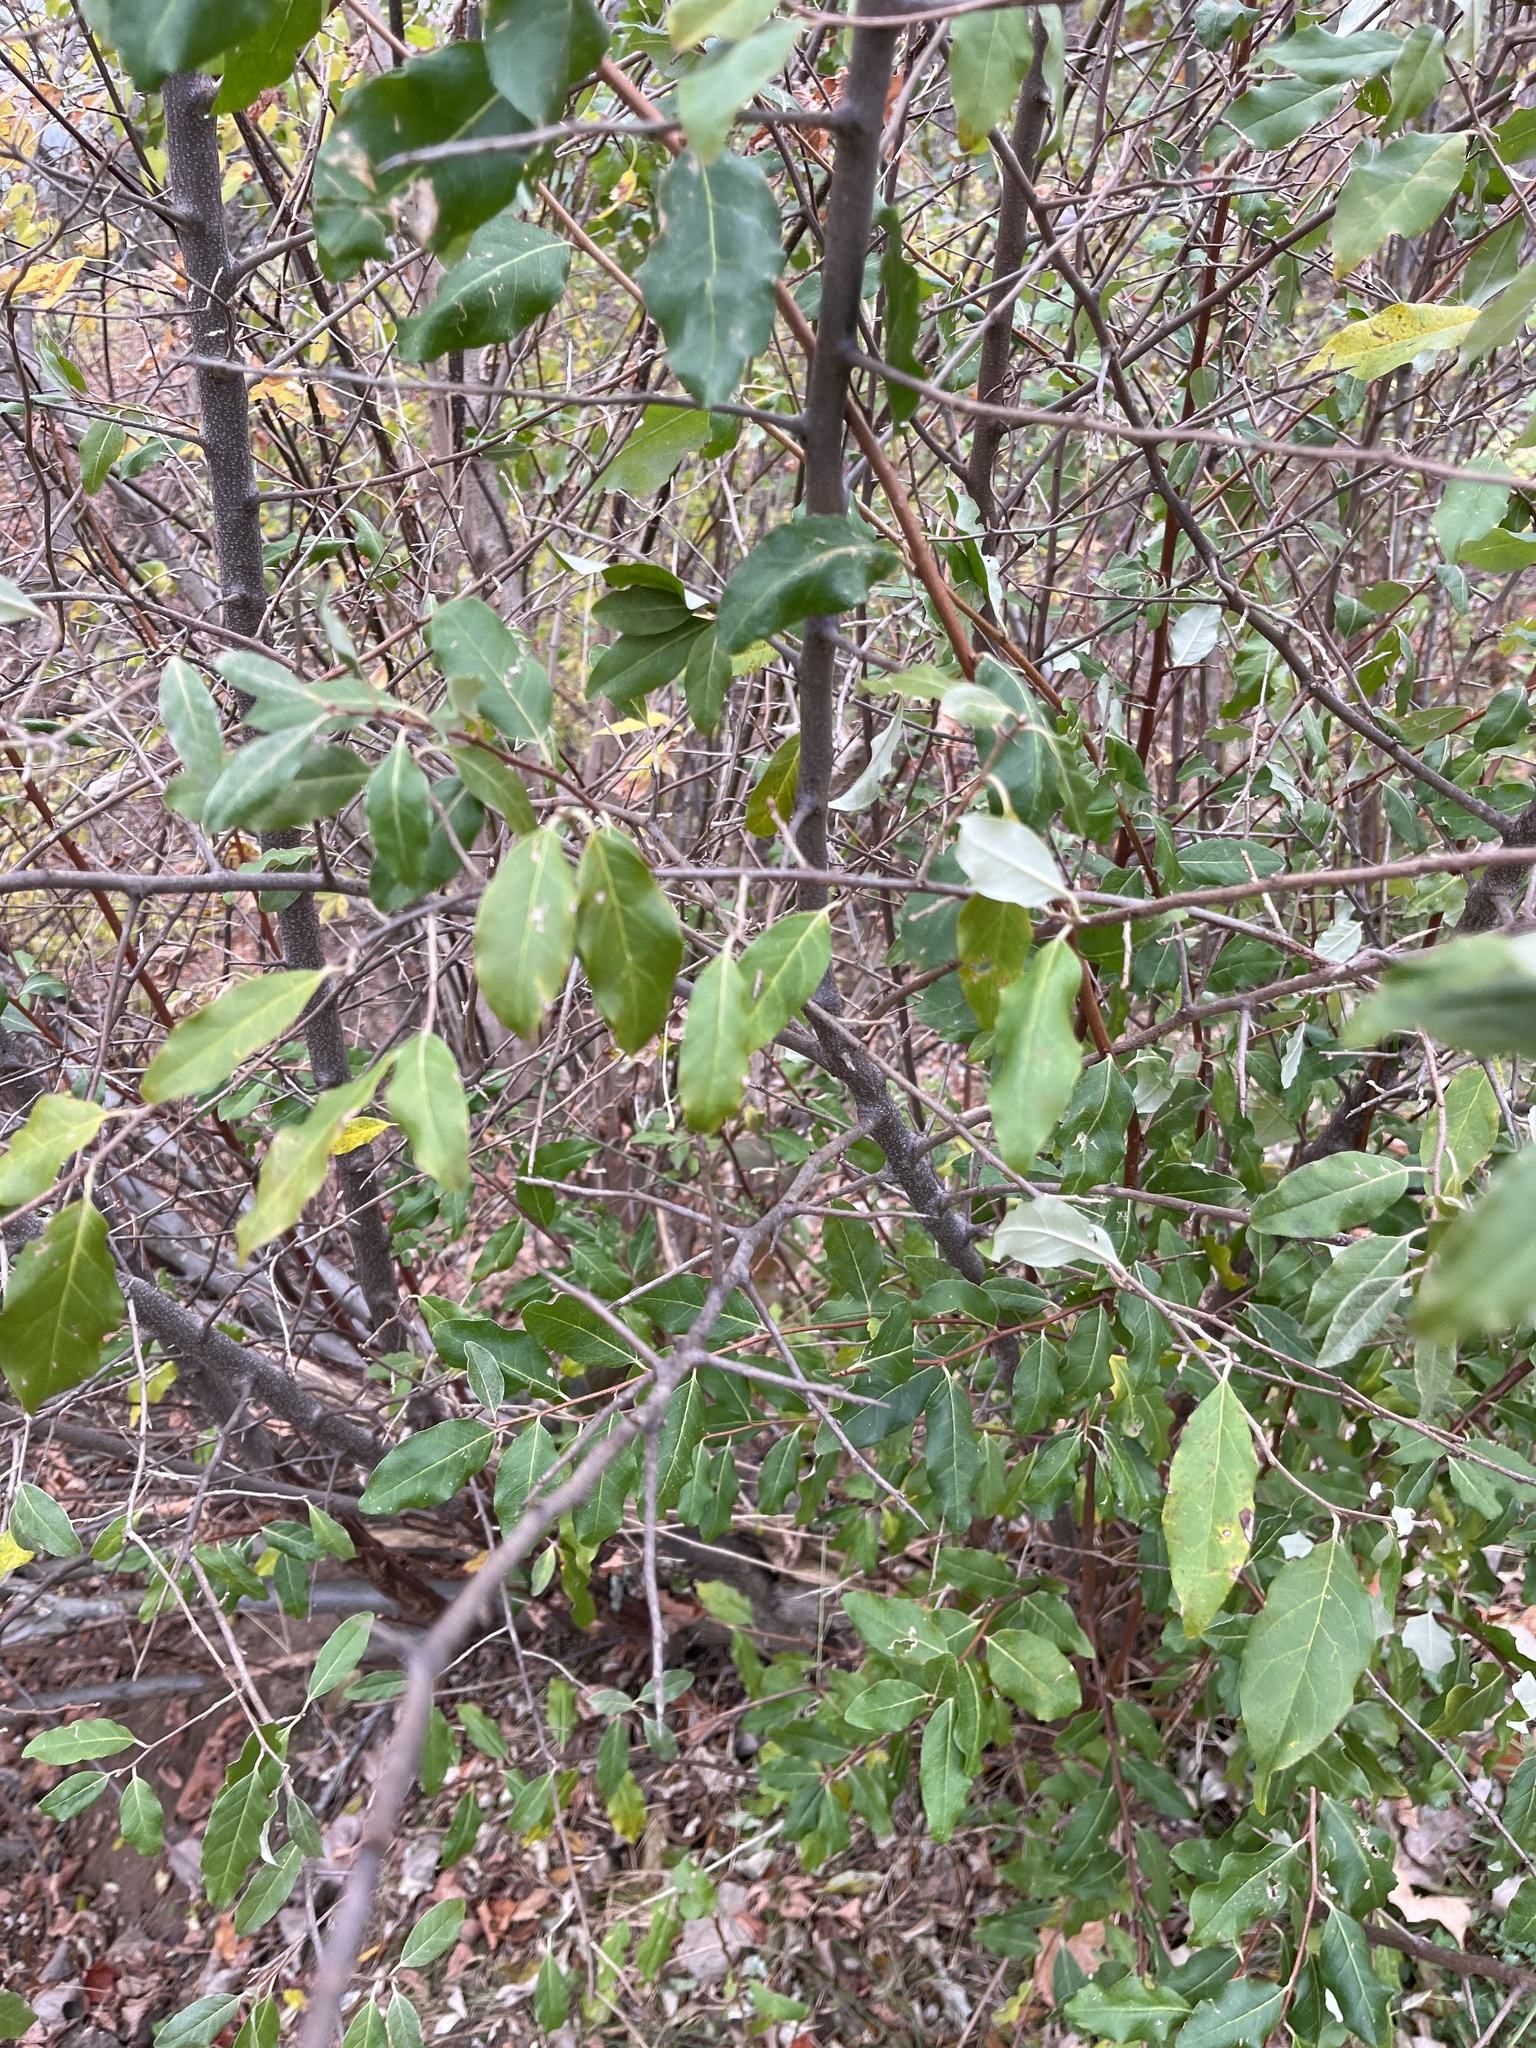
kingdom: Plantae
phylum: Tracheophyta
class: Magnoliopsida
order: Rosales
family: Elaeagnaceae
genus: Elaeagnus
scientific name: Elaeagnus umbellata
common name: Autumn olive
